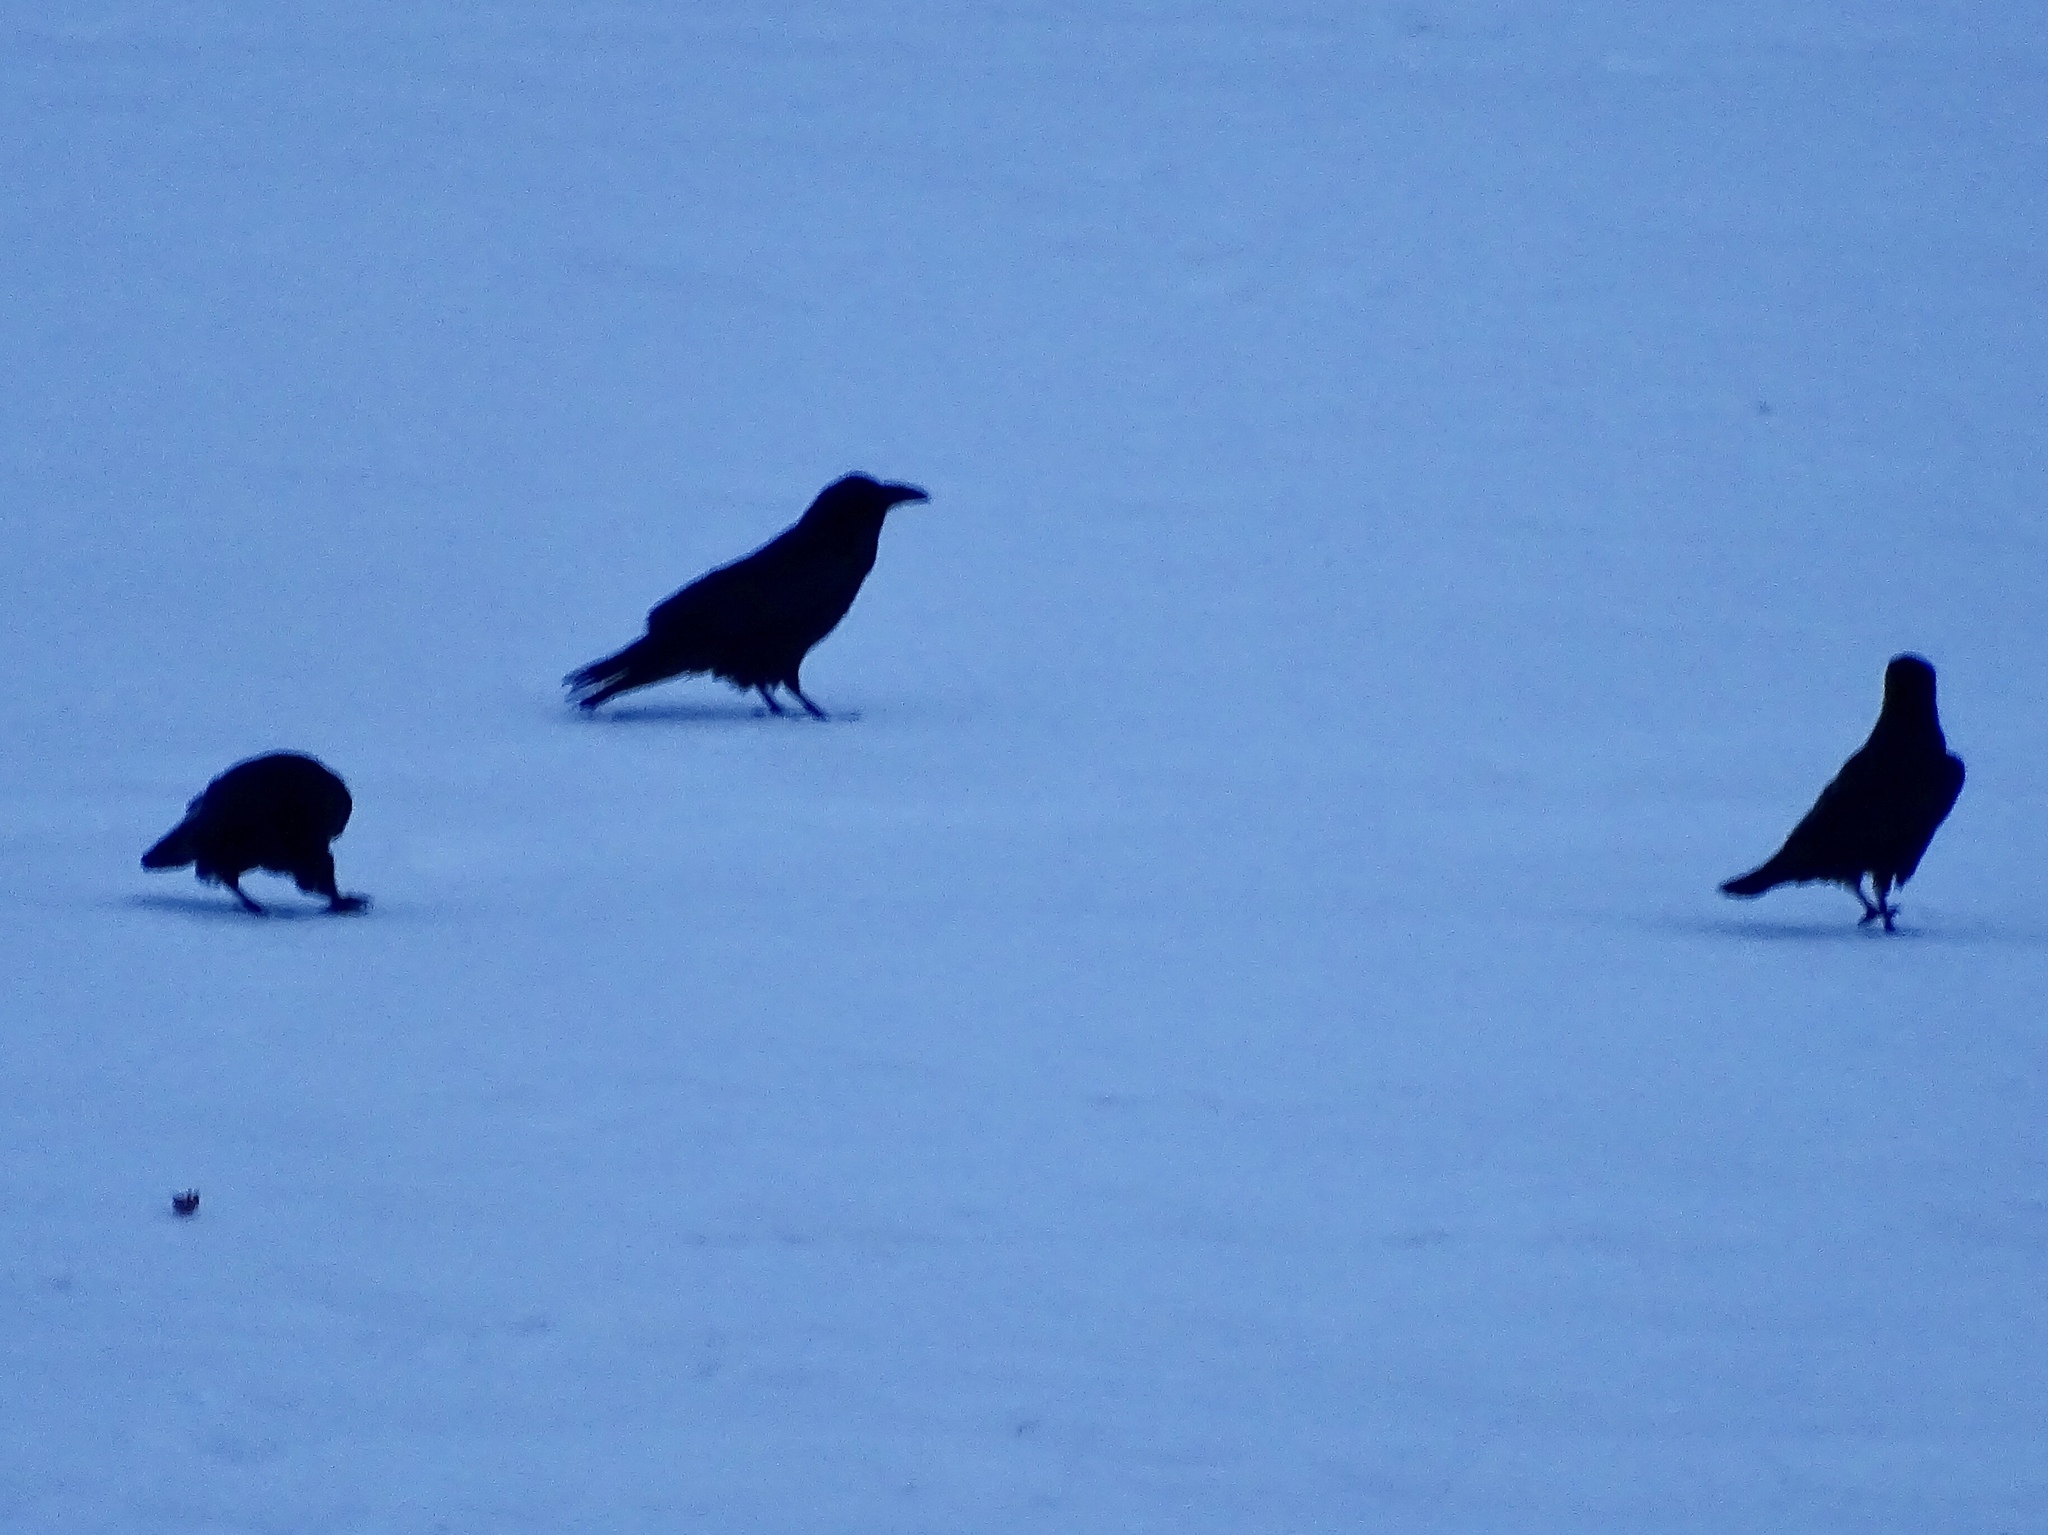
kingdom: Animalia
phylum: Chordata
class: Aves
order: Passeriformes
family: Corvidae
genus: Corvus
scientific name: Corvus corax
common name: Common raven
